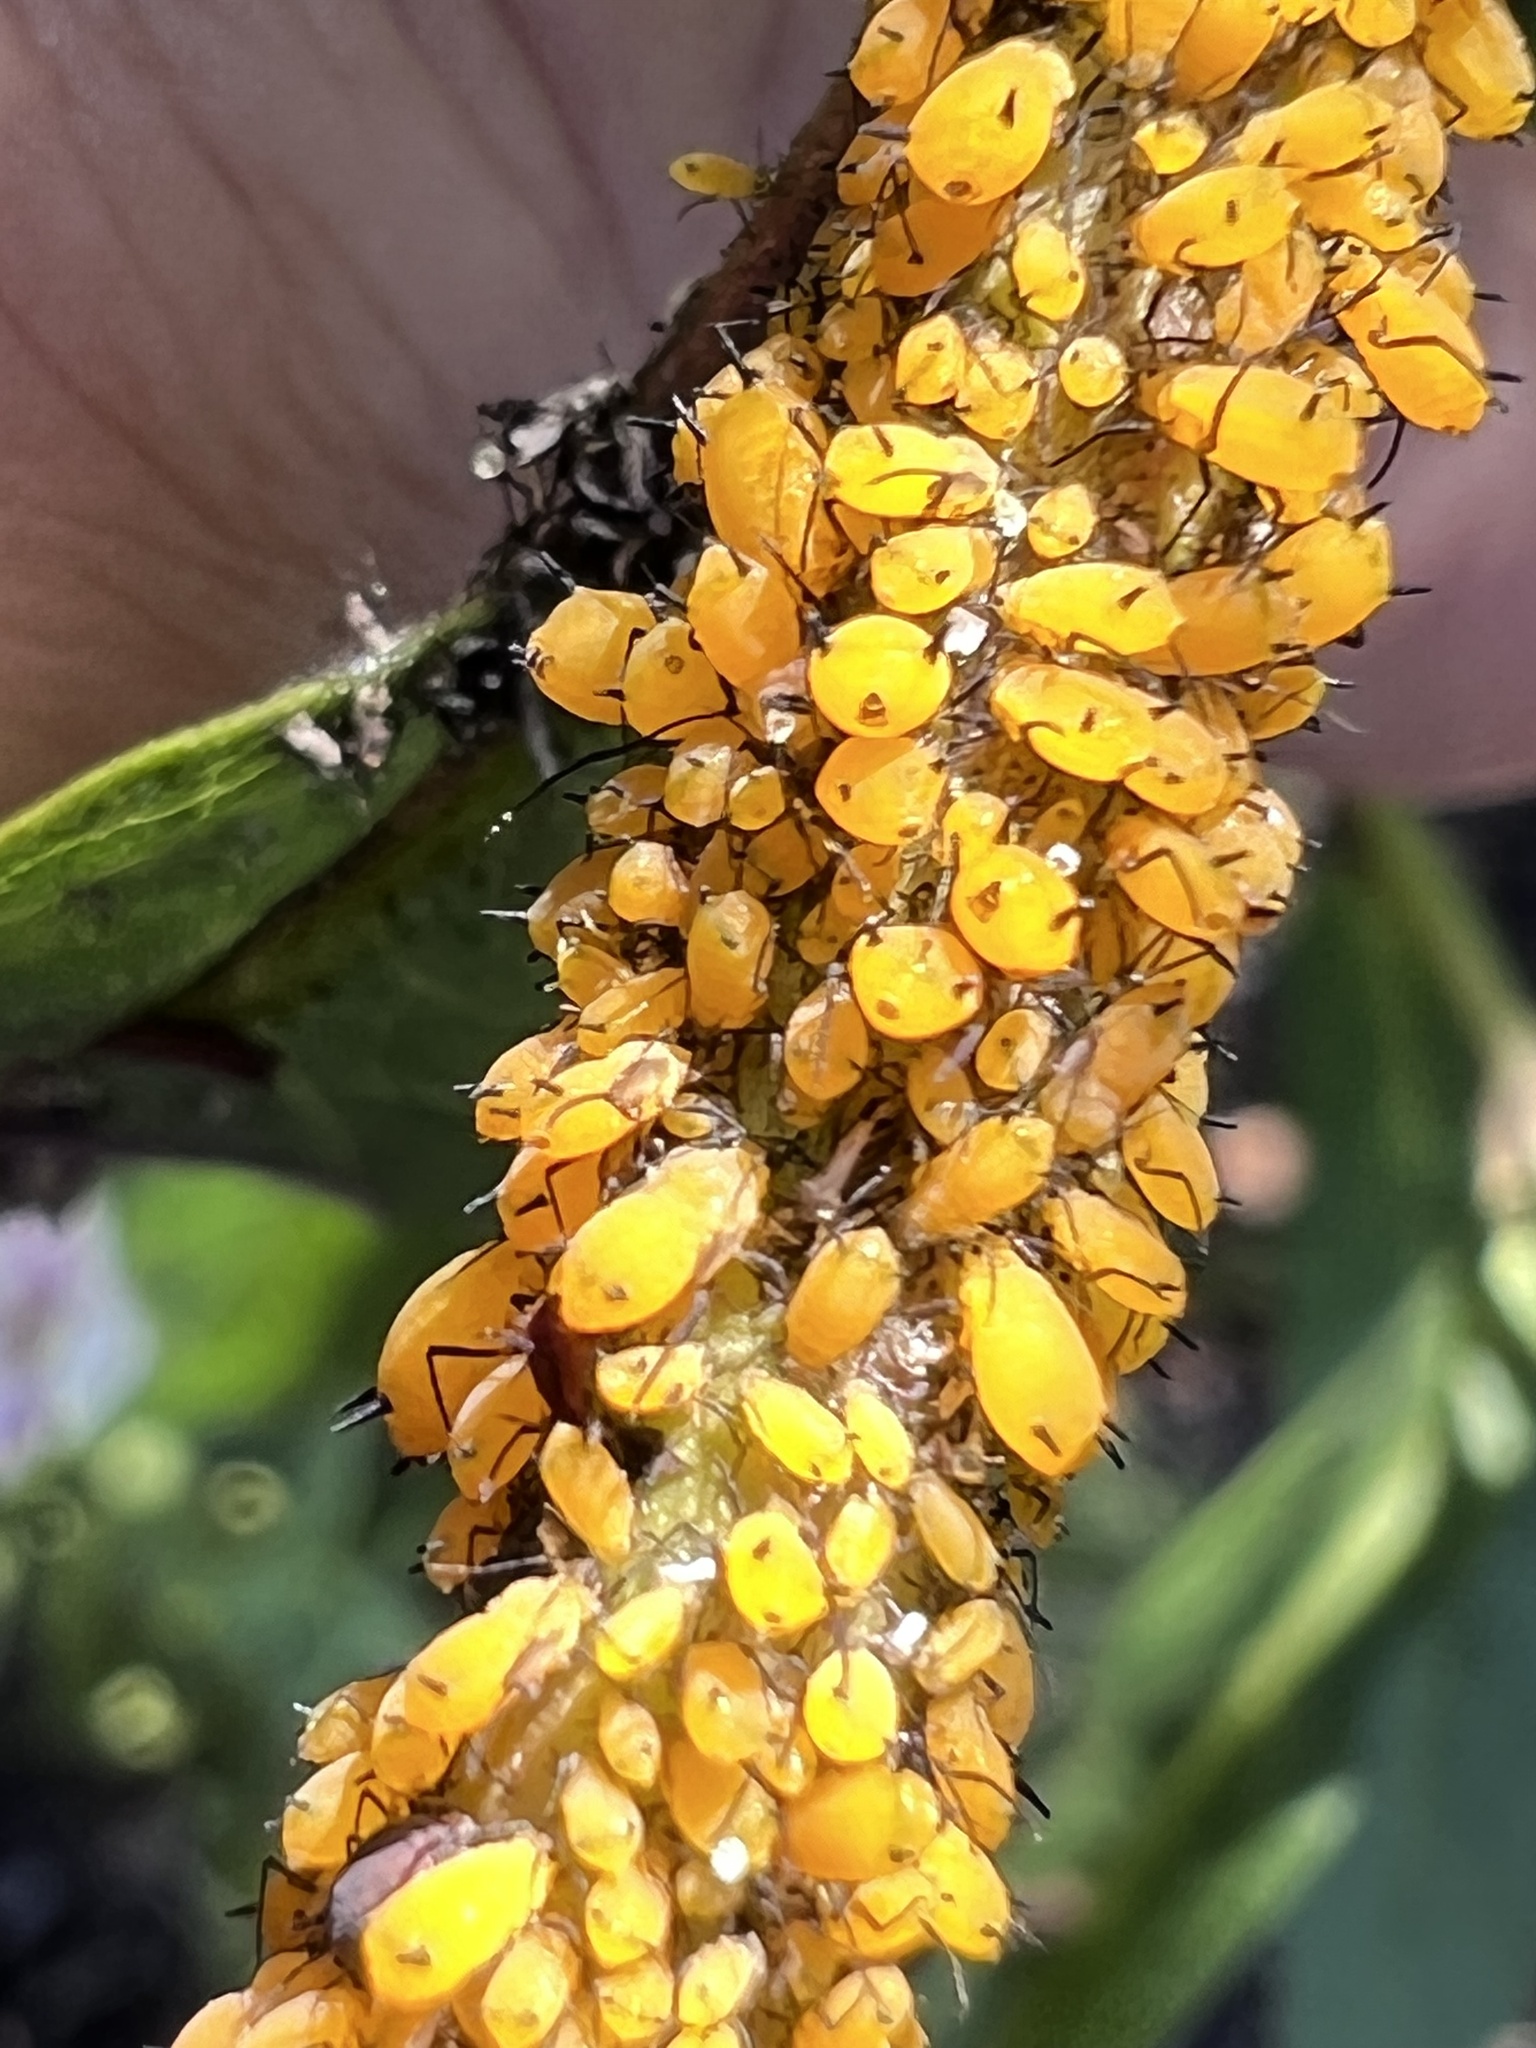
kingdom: Animalia
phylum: Arthropoda
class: Insecta
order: Hemiptera
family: Aphididae
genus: Aphis
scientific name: Aphis nerii
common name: Oleander aphid
